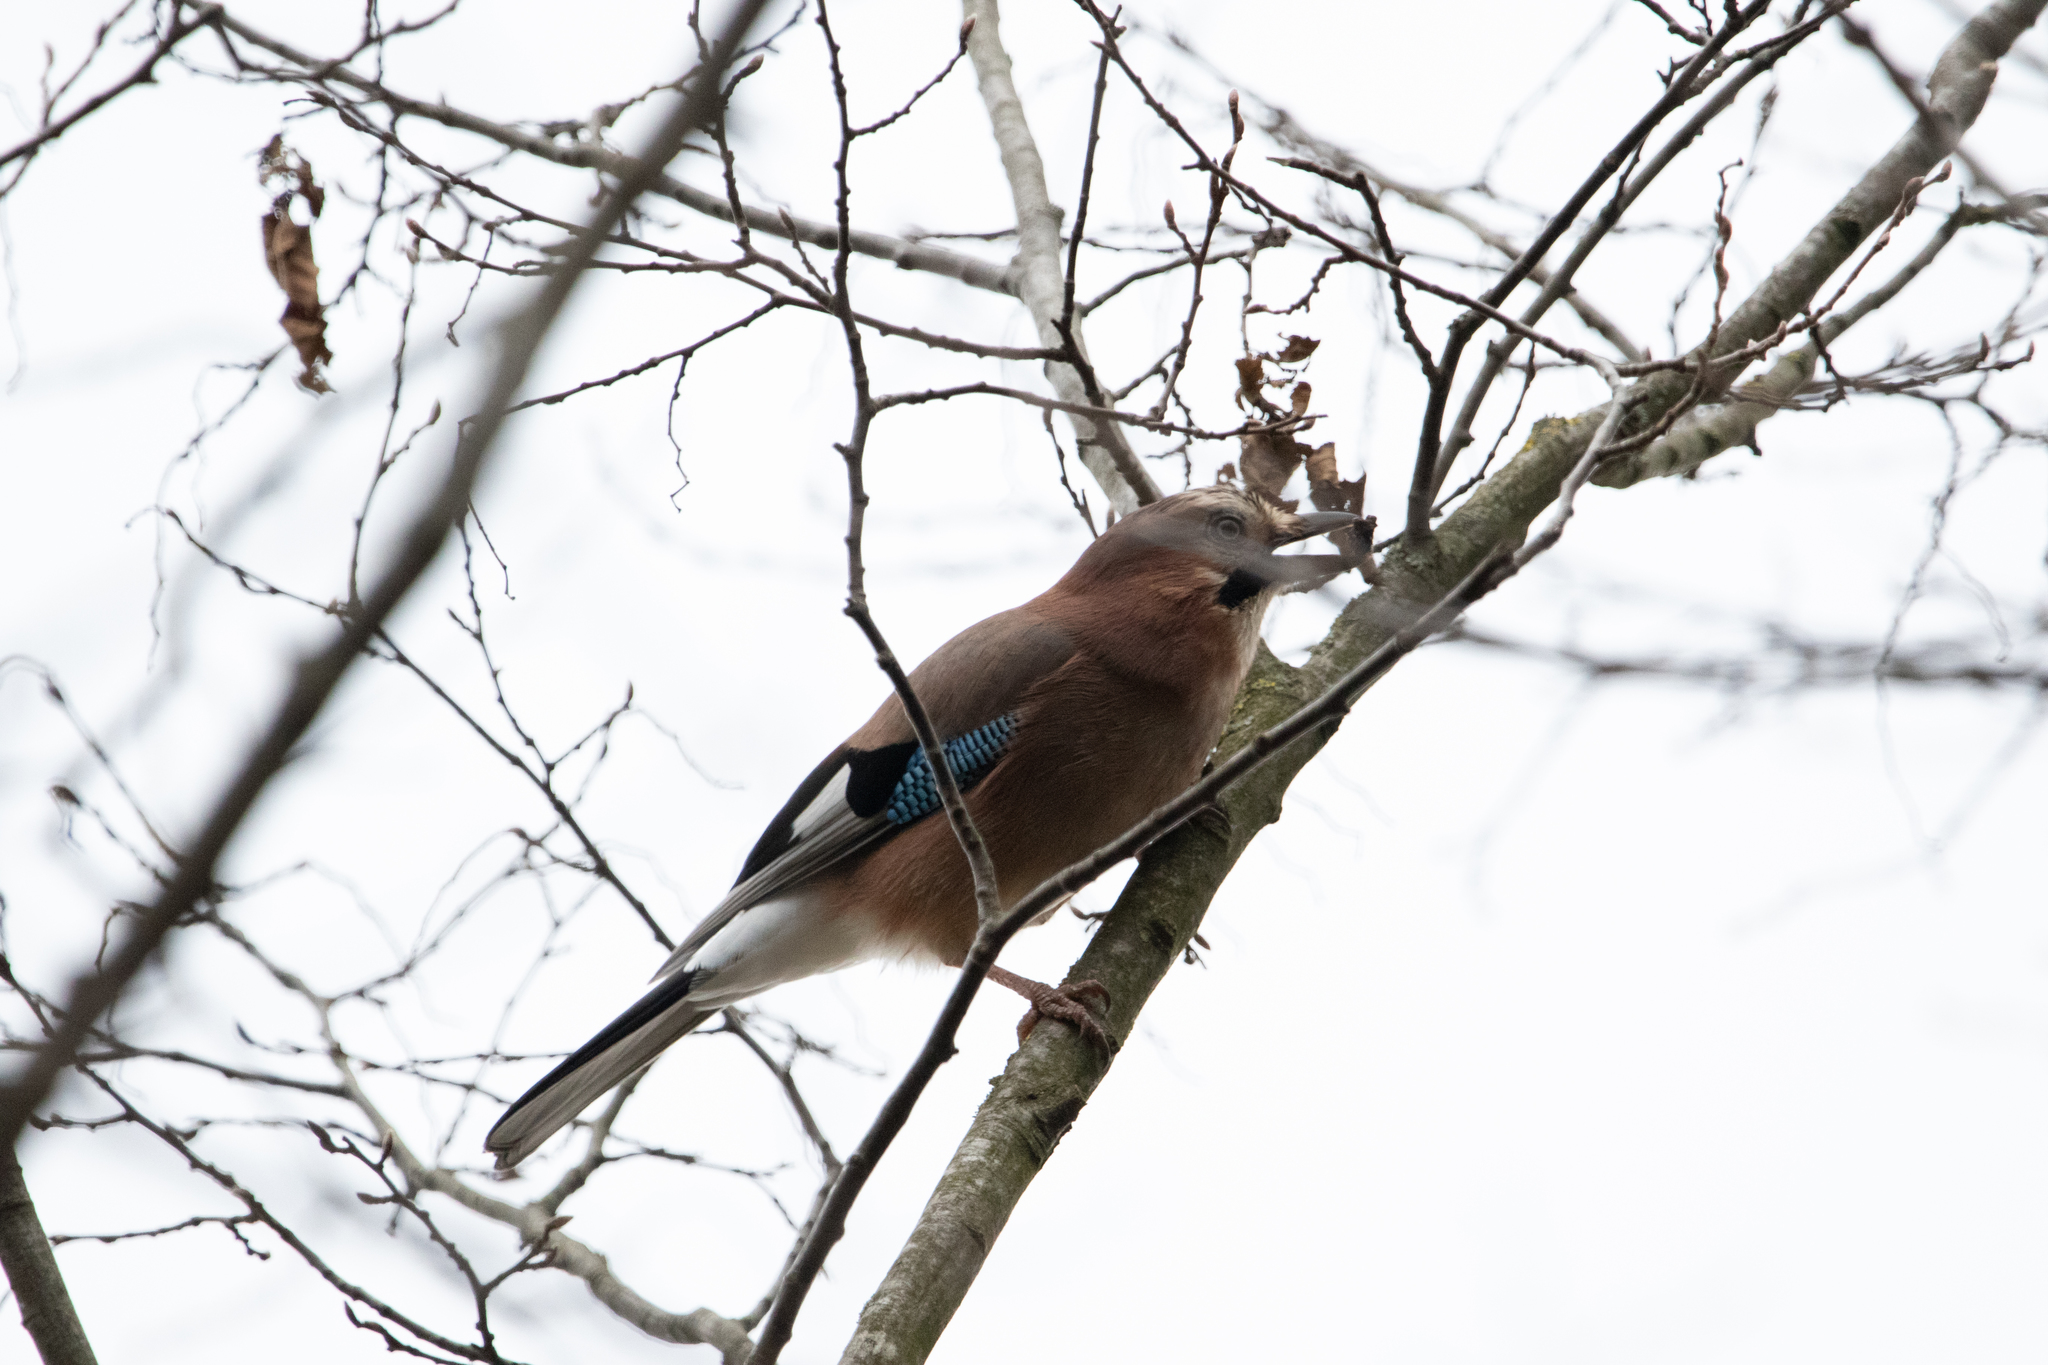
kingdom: Animalia
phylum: Chordata
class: Aves
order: Passeriformes
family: Corvidae
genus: Garrulus
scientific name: Garrulus glandarius
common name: Eurasian jay
